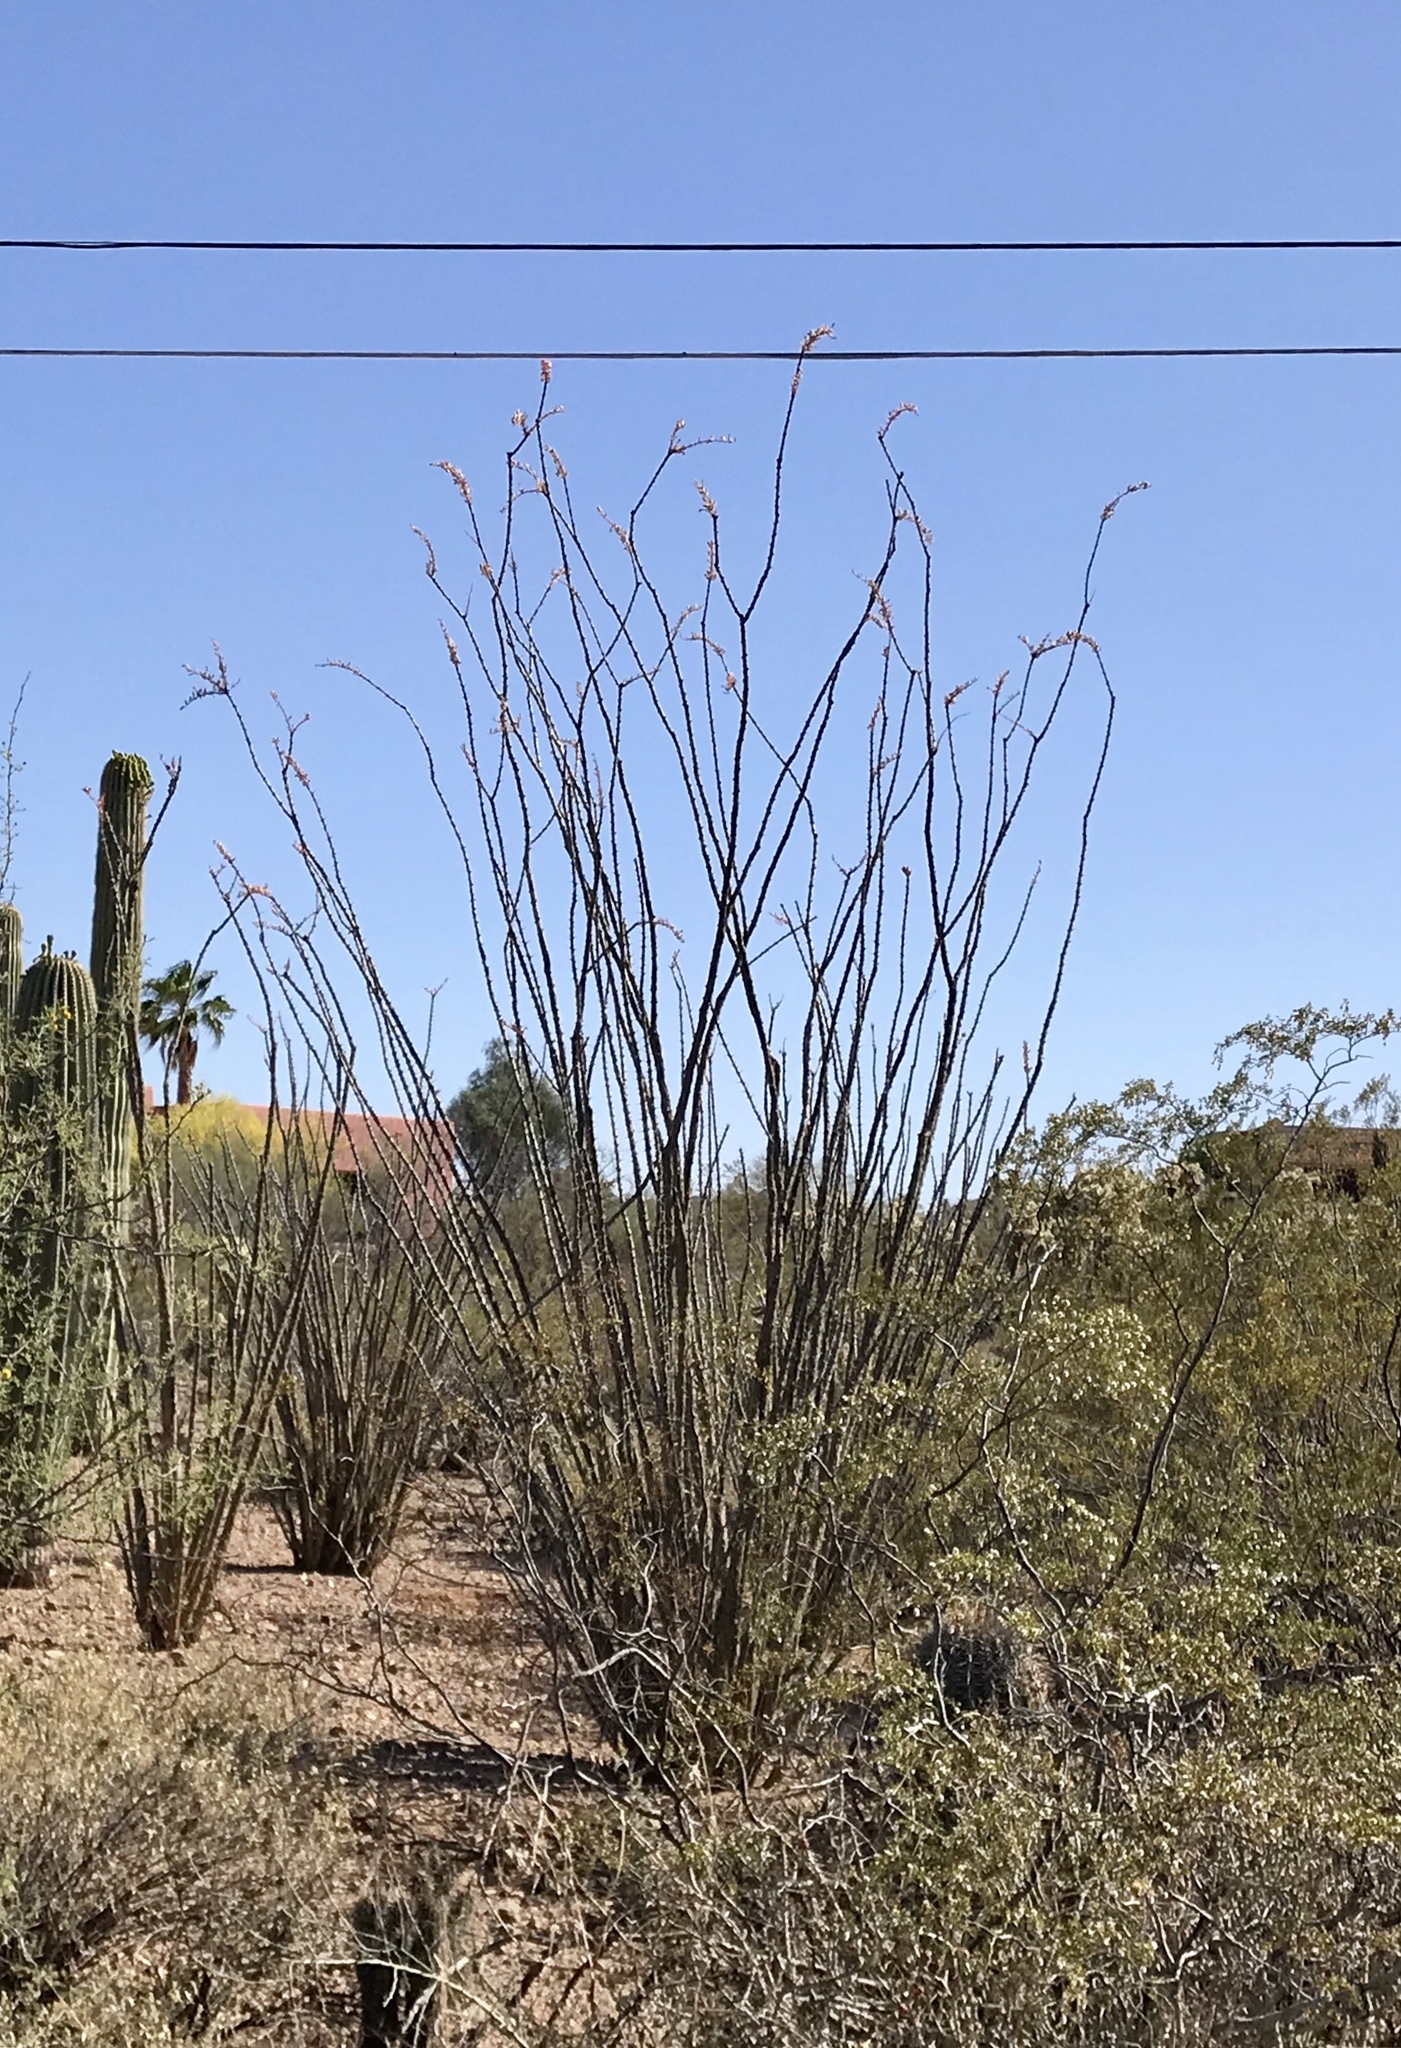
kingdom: Plantae
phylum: Tracheophyta
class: Magnoliopsida
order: Ericales
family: Fouquieriaceae
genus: Fouquieria
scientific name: Fouquieria splendens
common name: Vine-cactus
